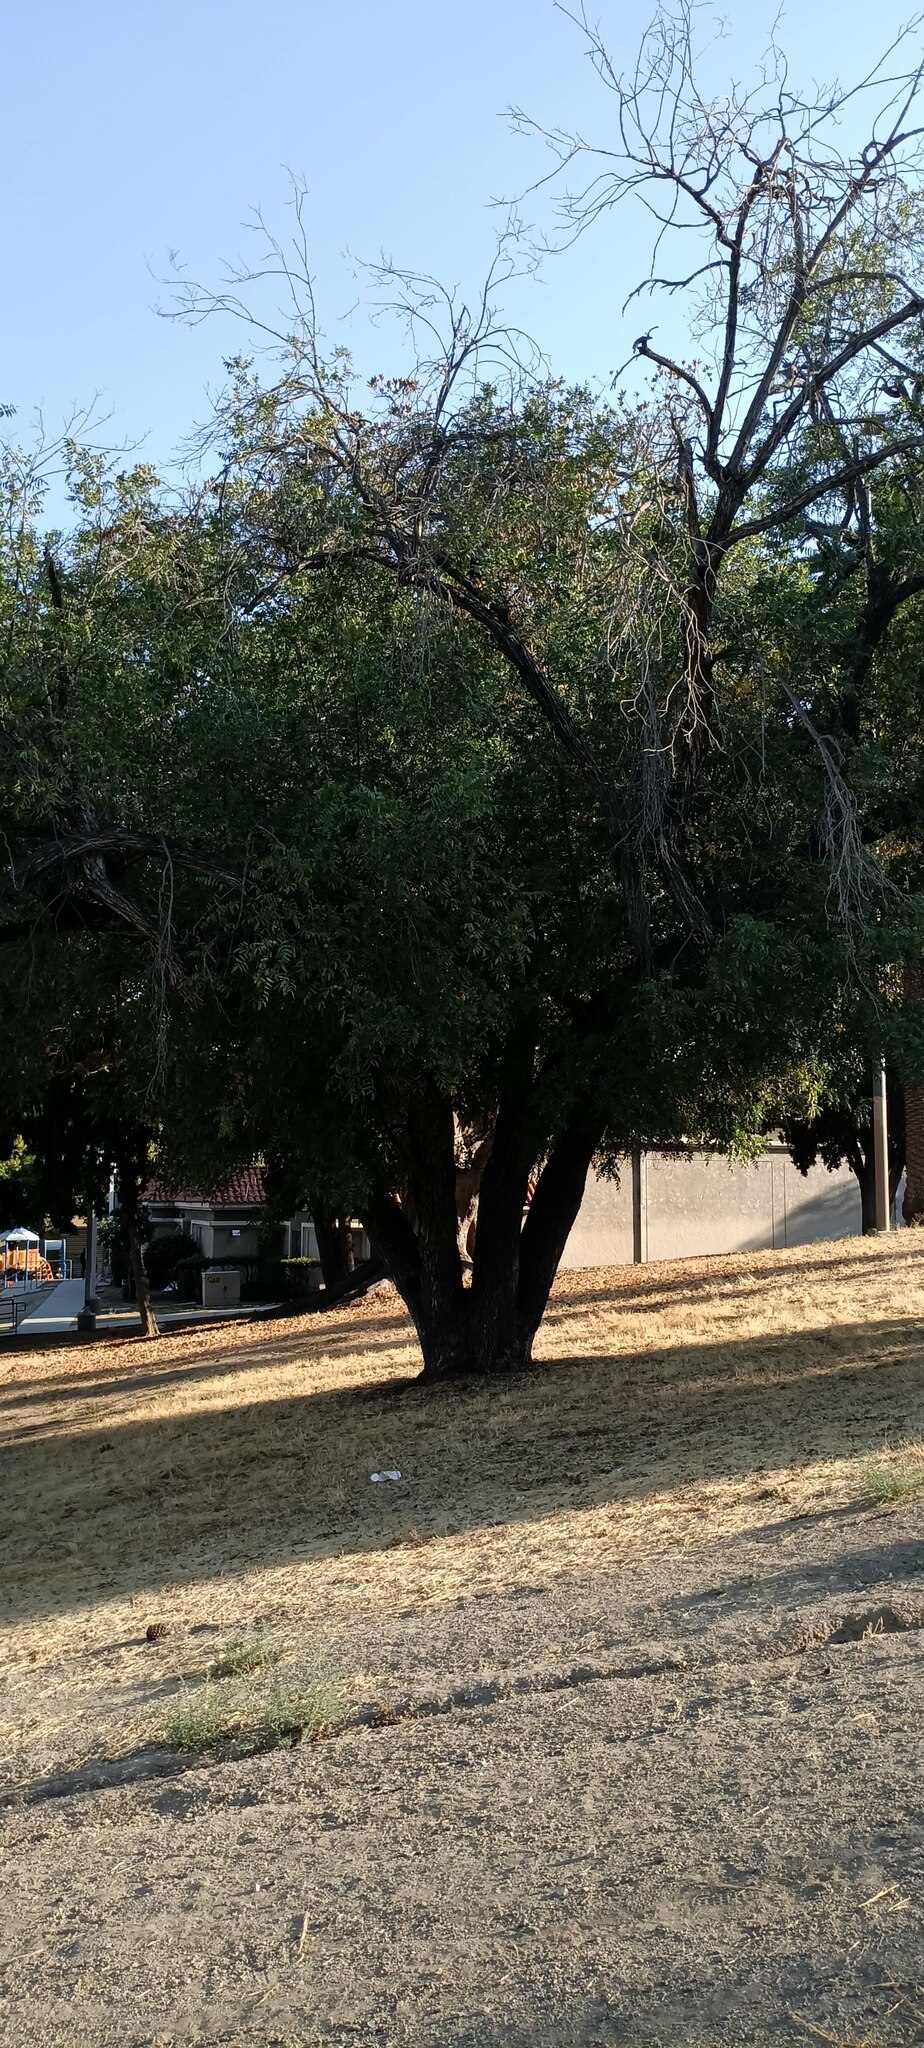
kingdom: Plantae
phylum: Tracheophyta
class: Magnoliopsida
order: Fagales
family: Juglandaceae
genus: Juglans
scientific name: Juglans californica
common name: Southern california black walnut
